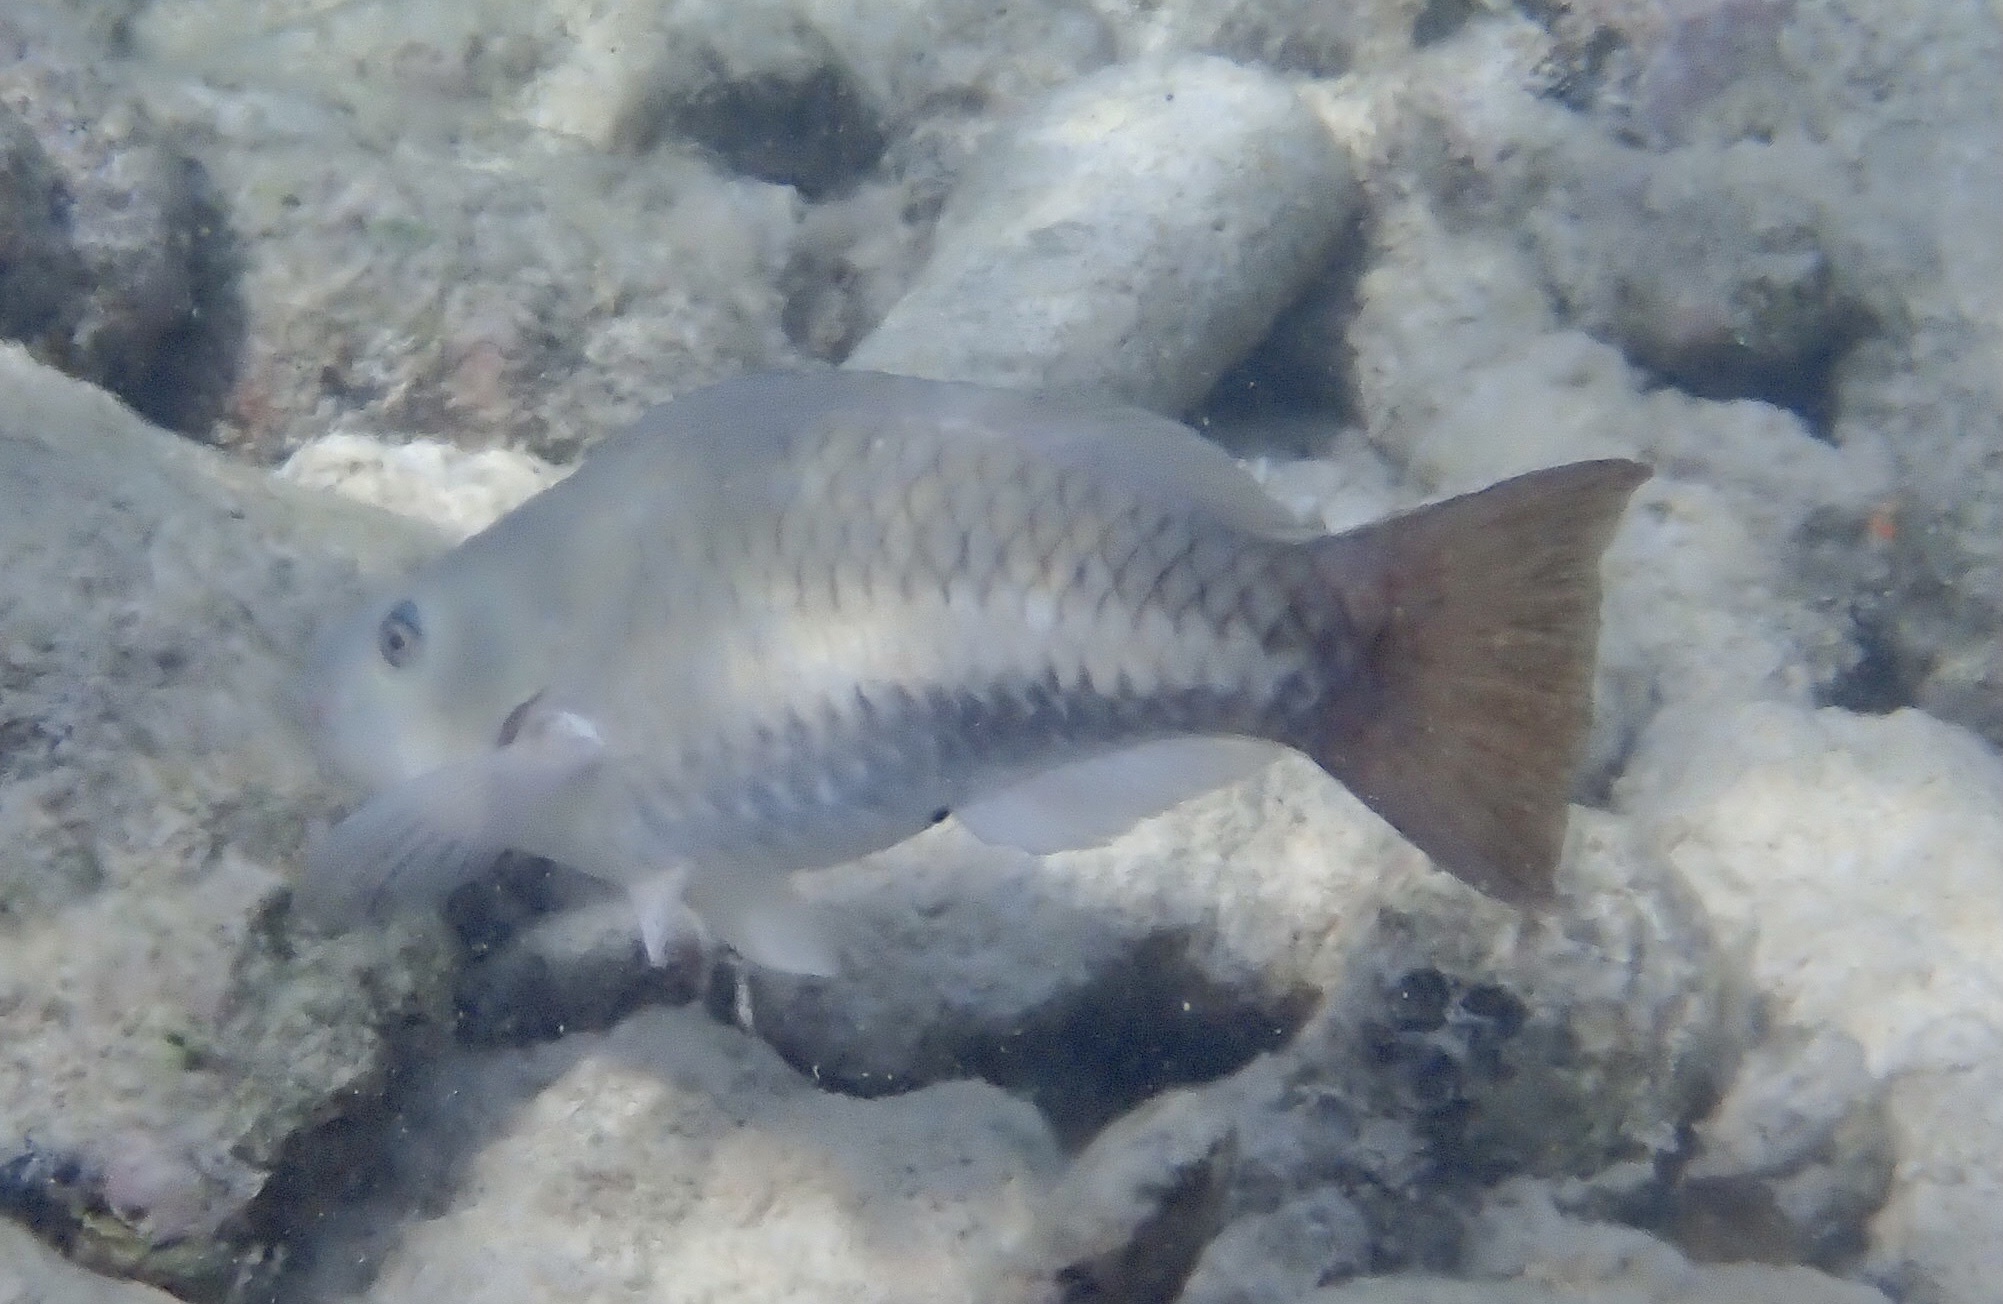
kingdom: Animalia
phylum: Chordata
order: Perciformes
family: Scaridae
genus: Scarus
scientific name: Scarus vetula
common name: Queen parrotfish
